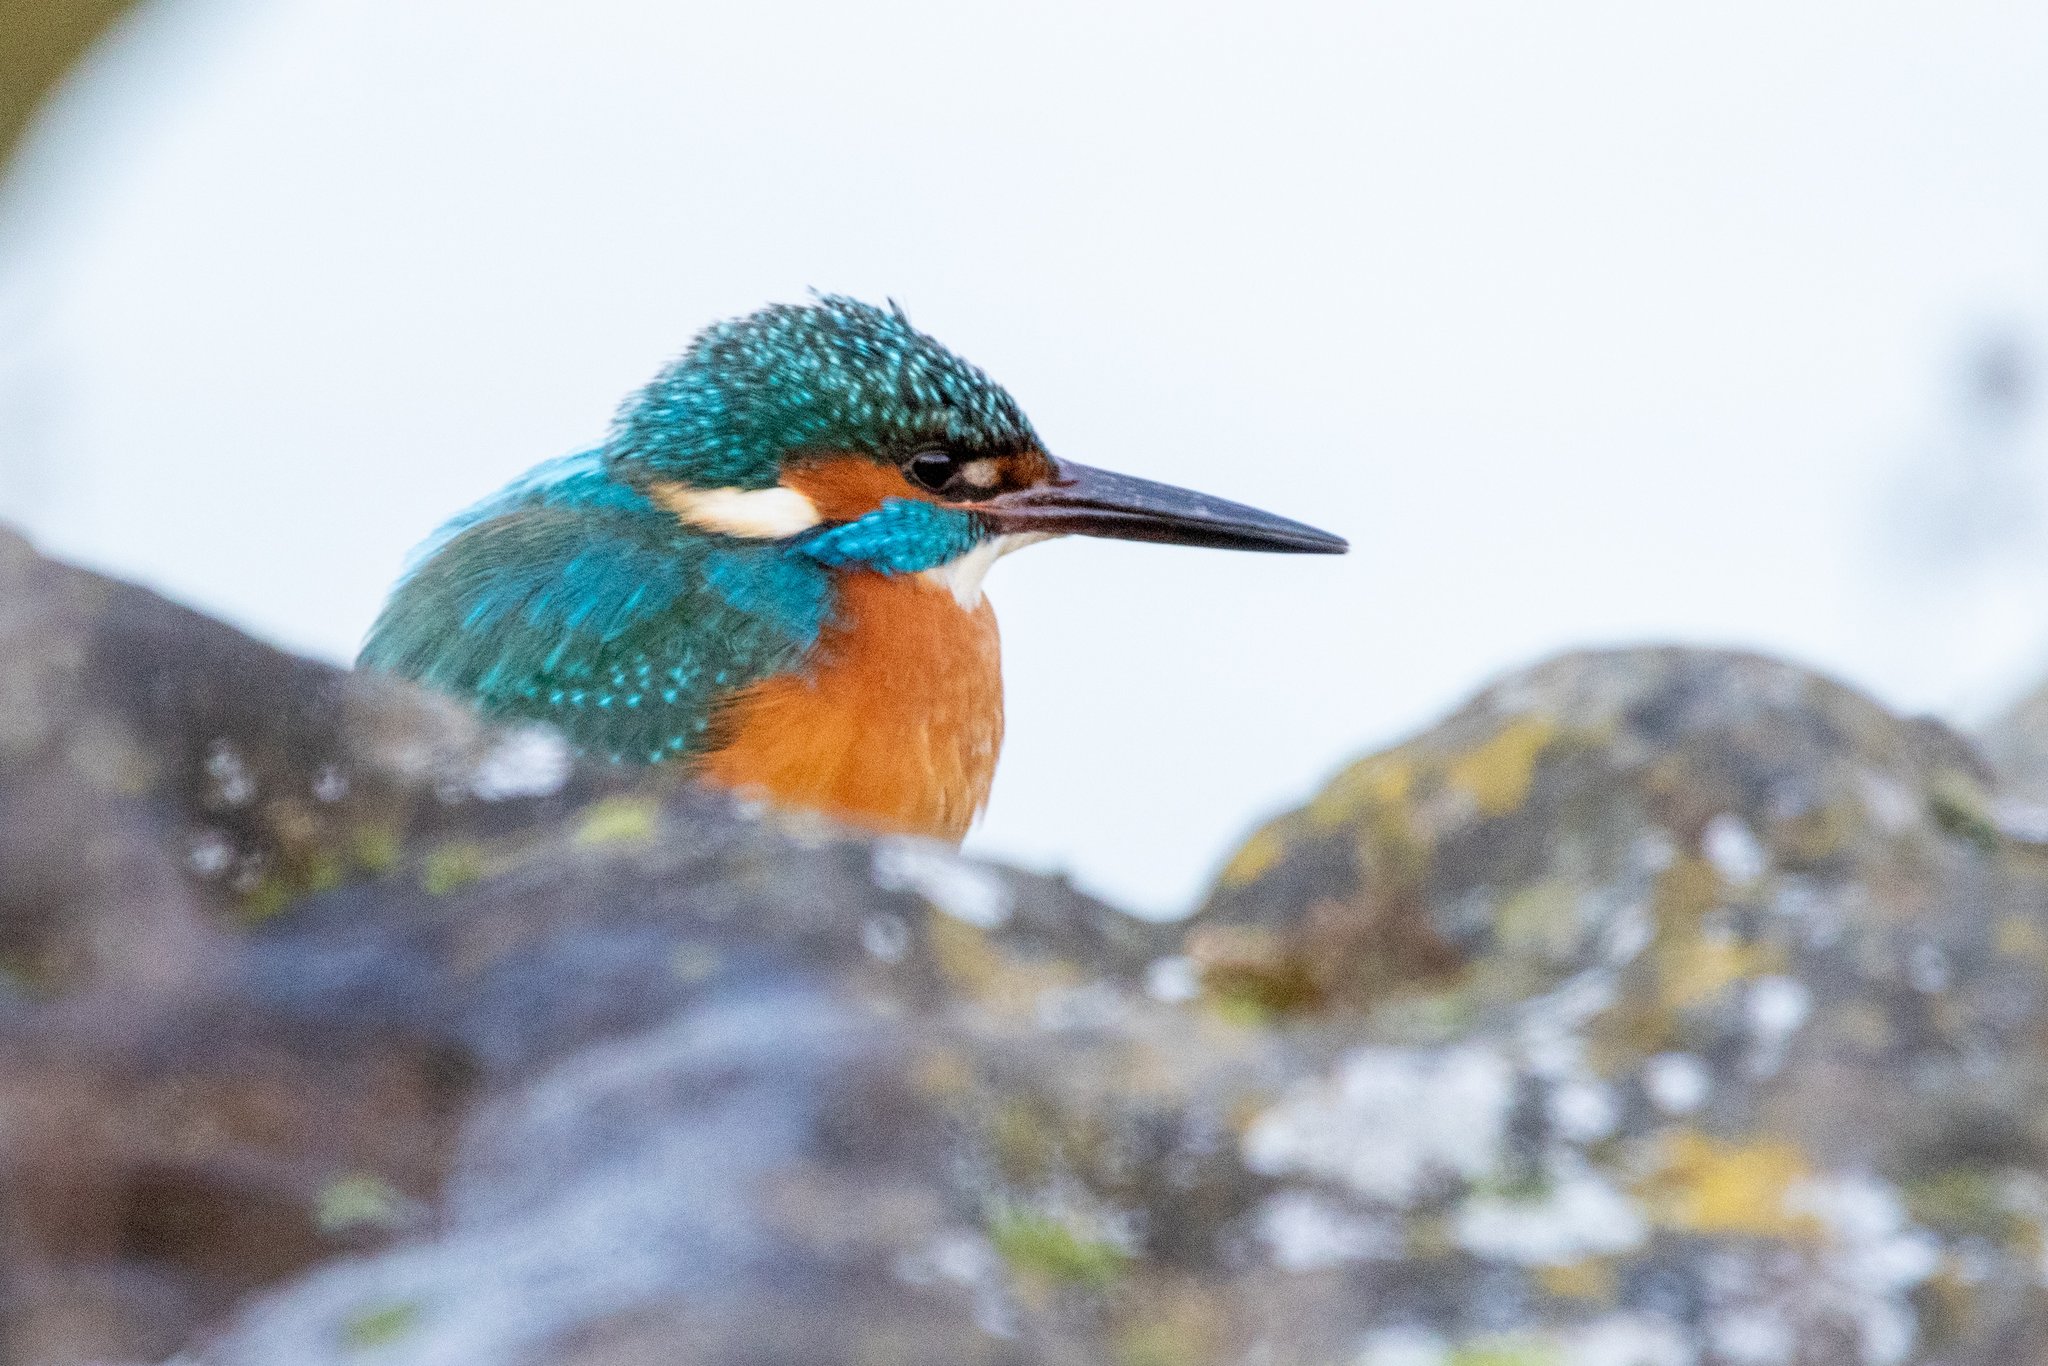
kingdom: Animalia
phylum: Chordata
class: Aves
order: Coraciiformes
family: Alcedinidae
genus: Alcedo
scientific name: Alcedo atthis
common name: Common kingfisher
